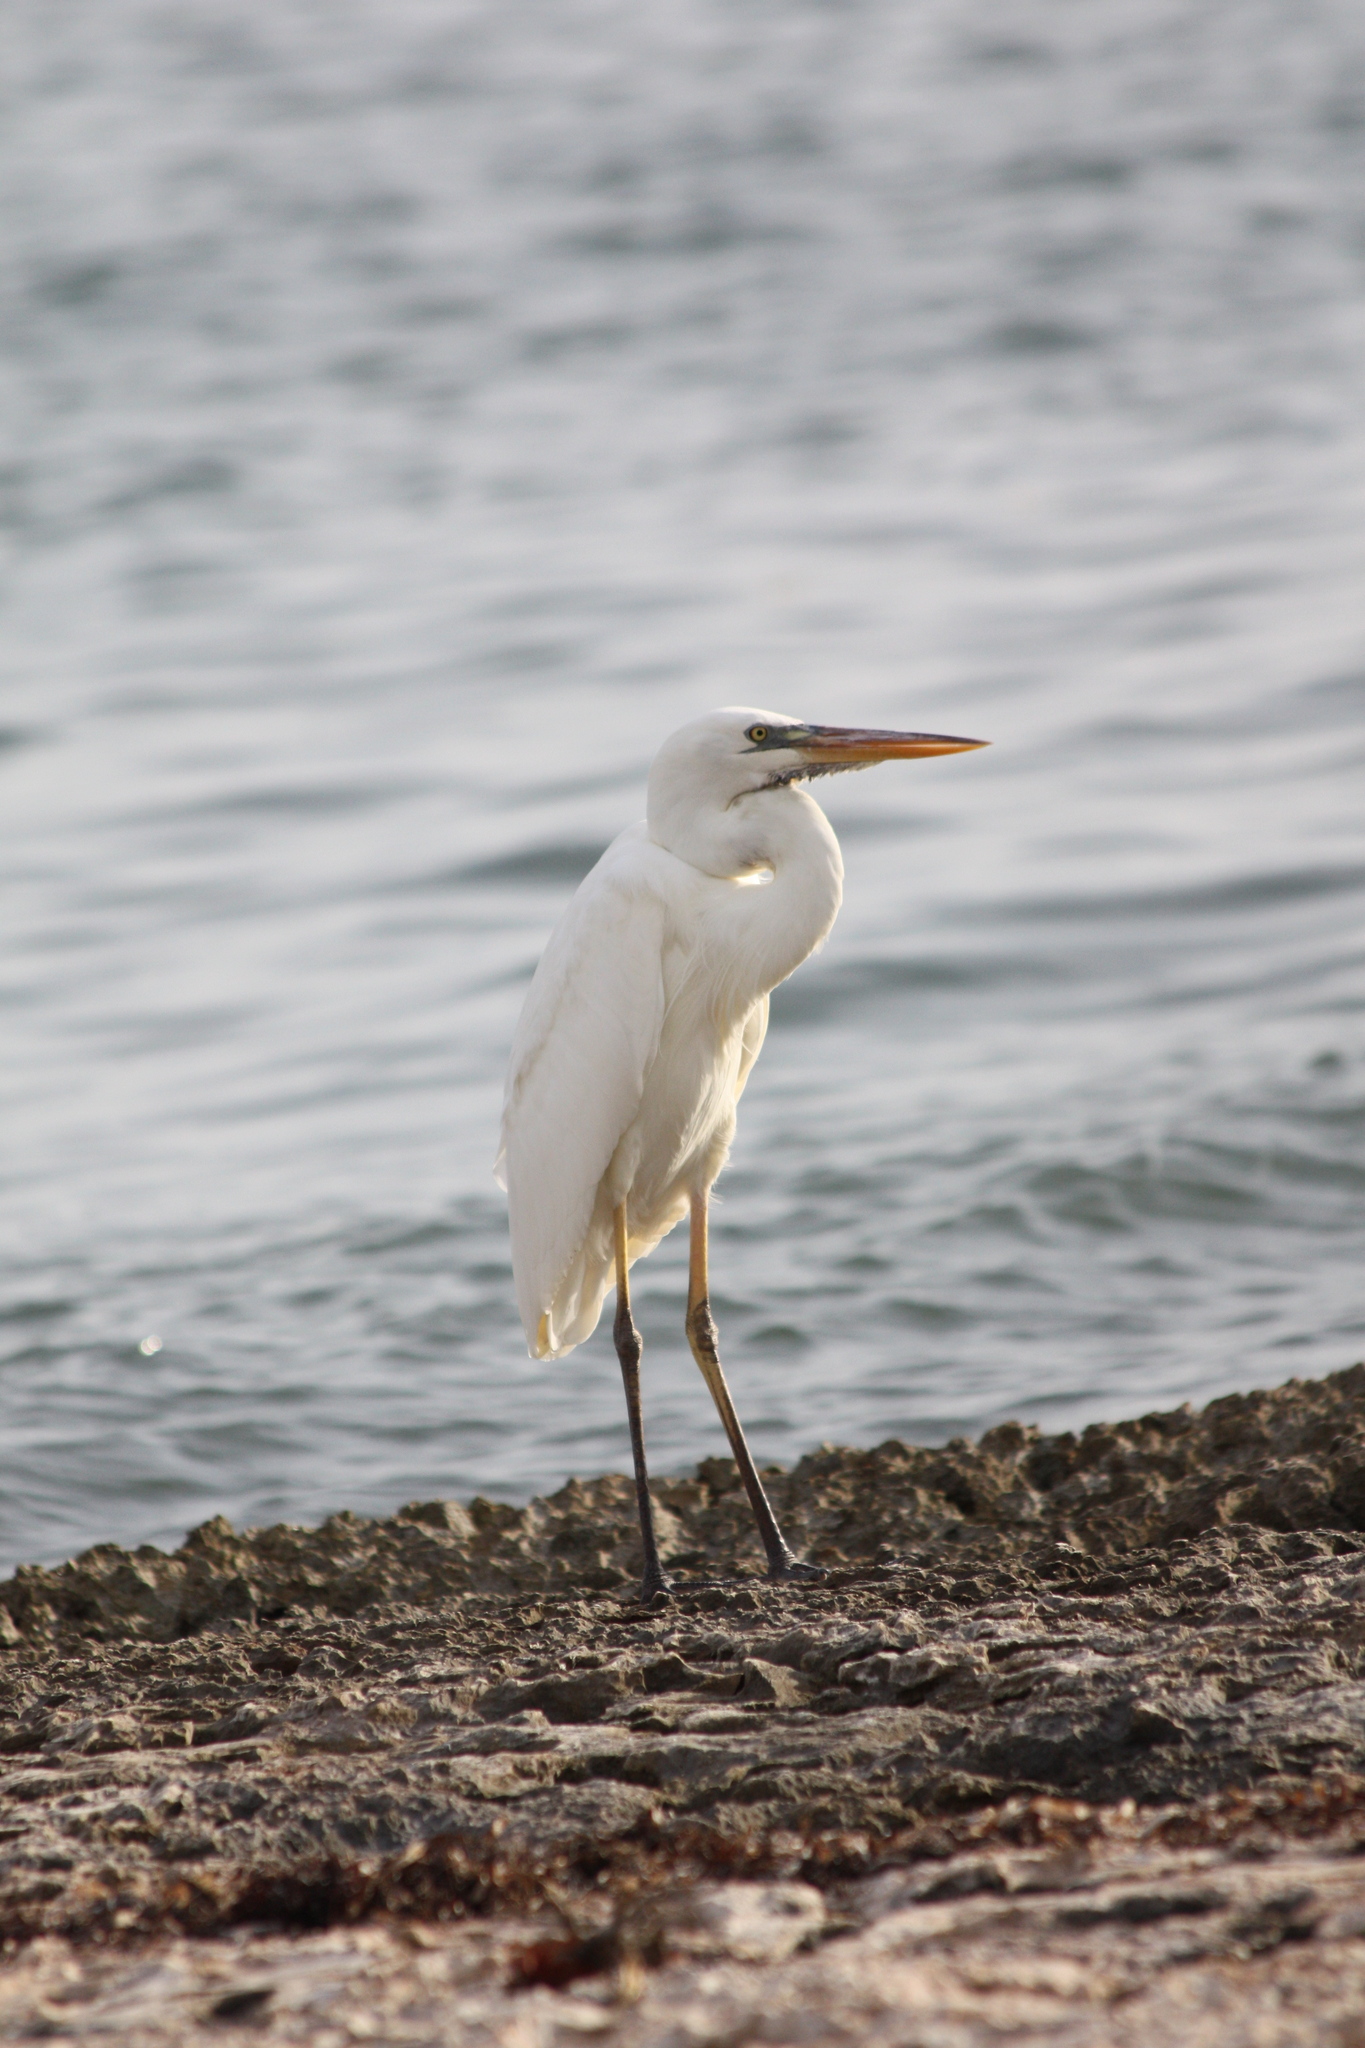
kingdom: Animalia
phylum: Chordata
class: Aves
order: Pelecaniformes
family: Ardeidae
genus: Ardea
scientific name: Ardea herodias
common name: Great blue heron
